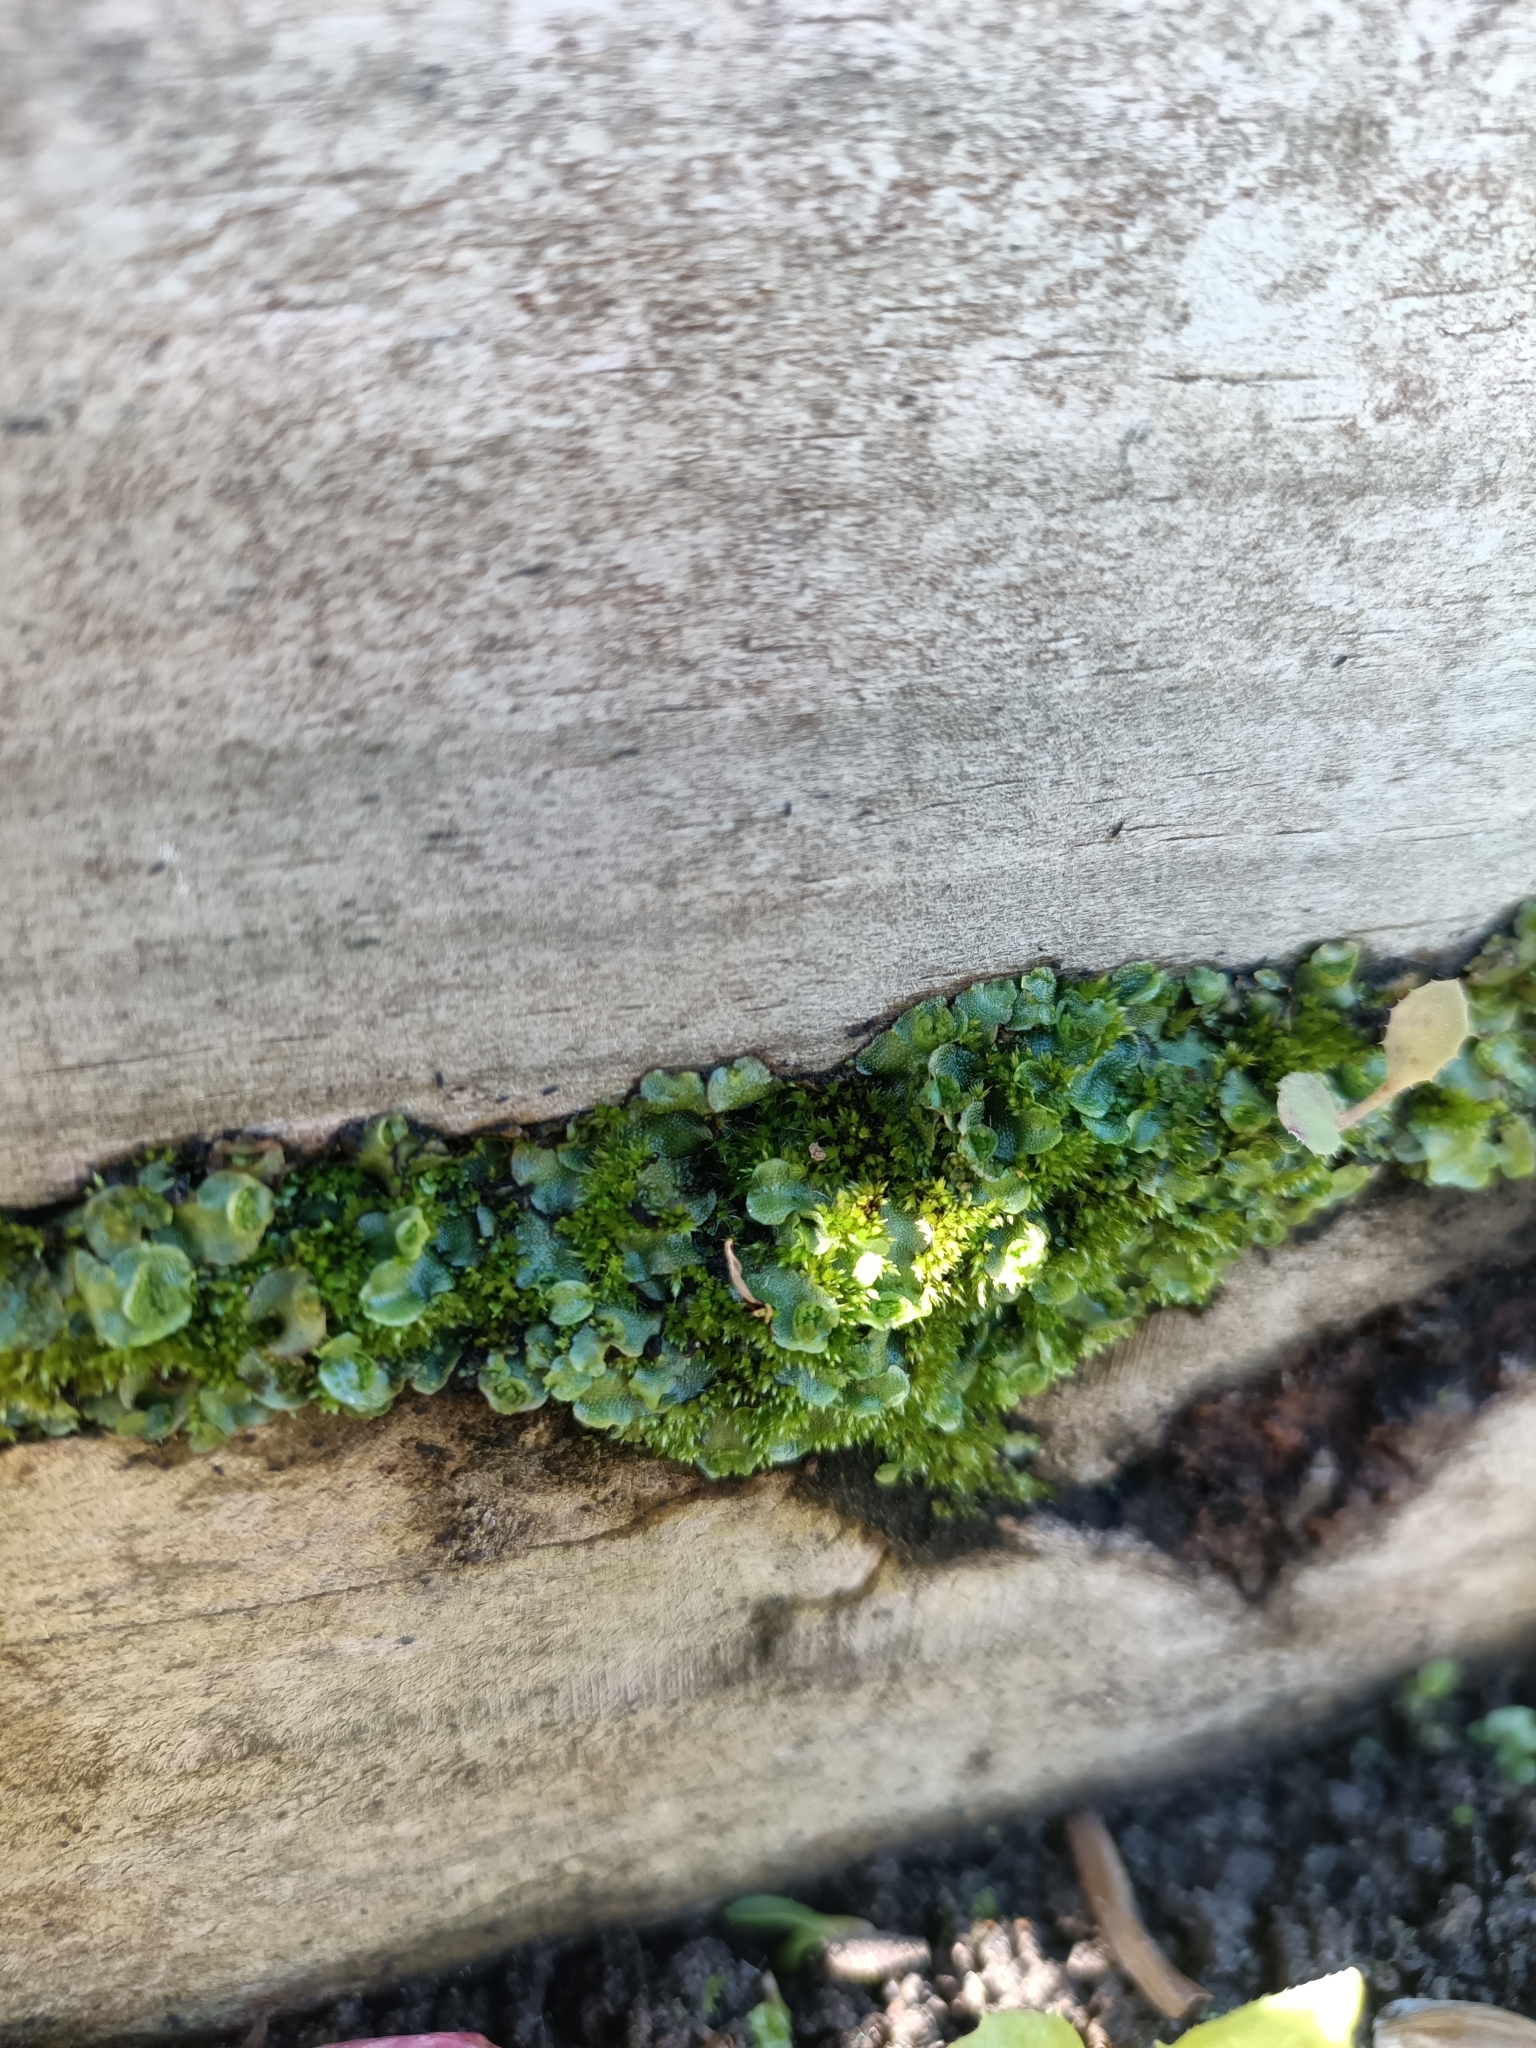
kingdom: Plantae
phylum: Marchantiophyta
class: Marchantiopsida
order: Lunulariales
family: Lunulariaceae
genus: Lunularia
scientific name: Lunularia cruciata
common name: Crescent-cup liverwort
